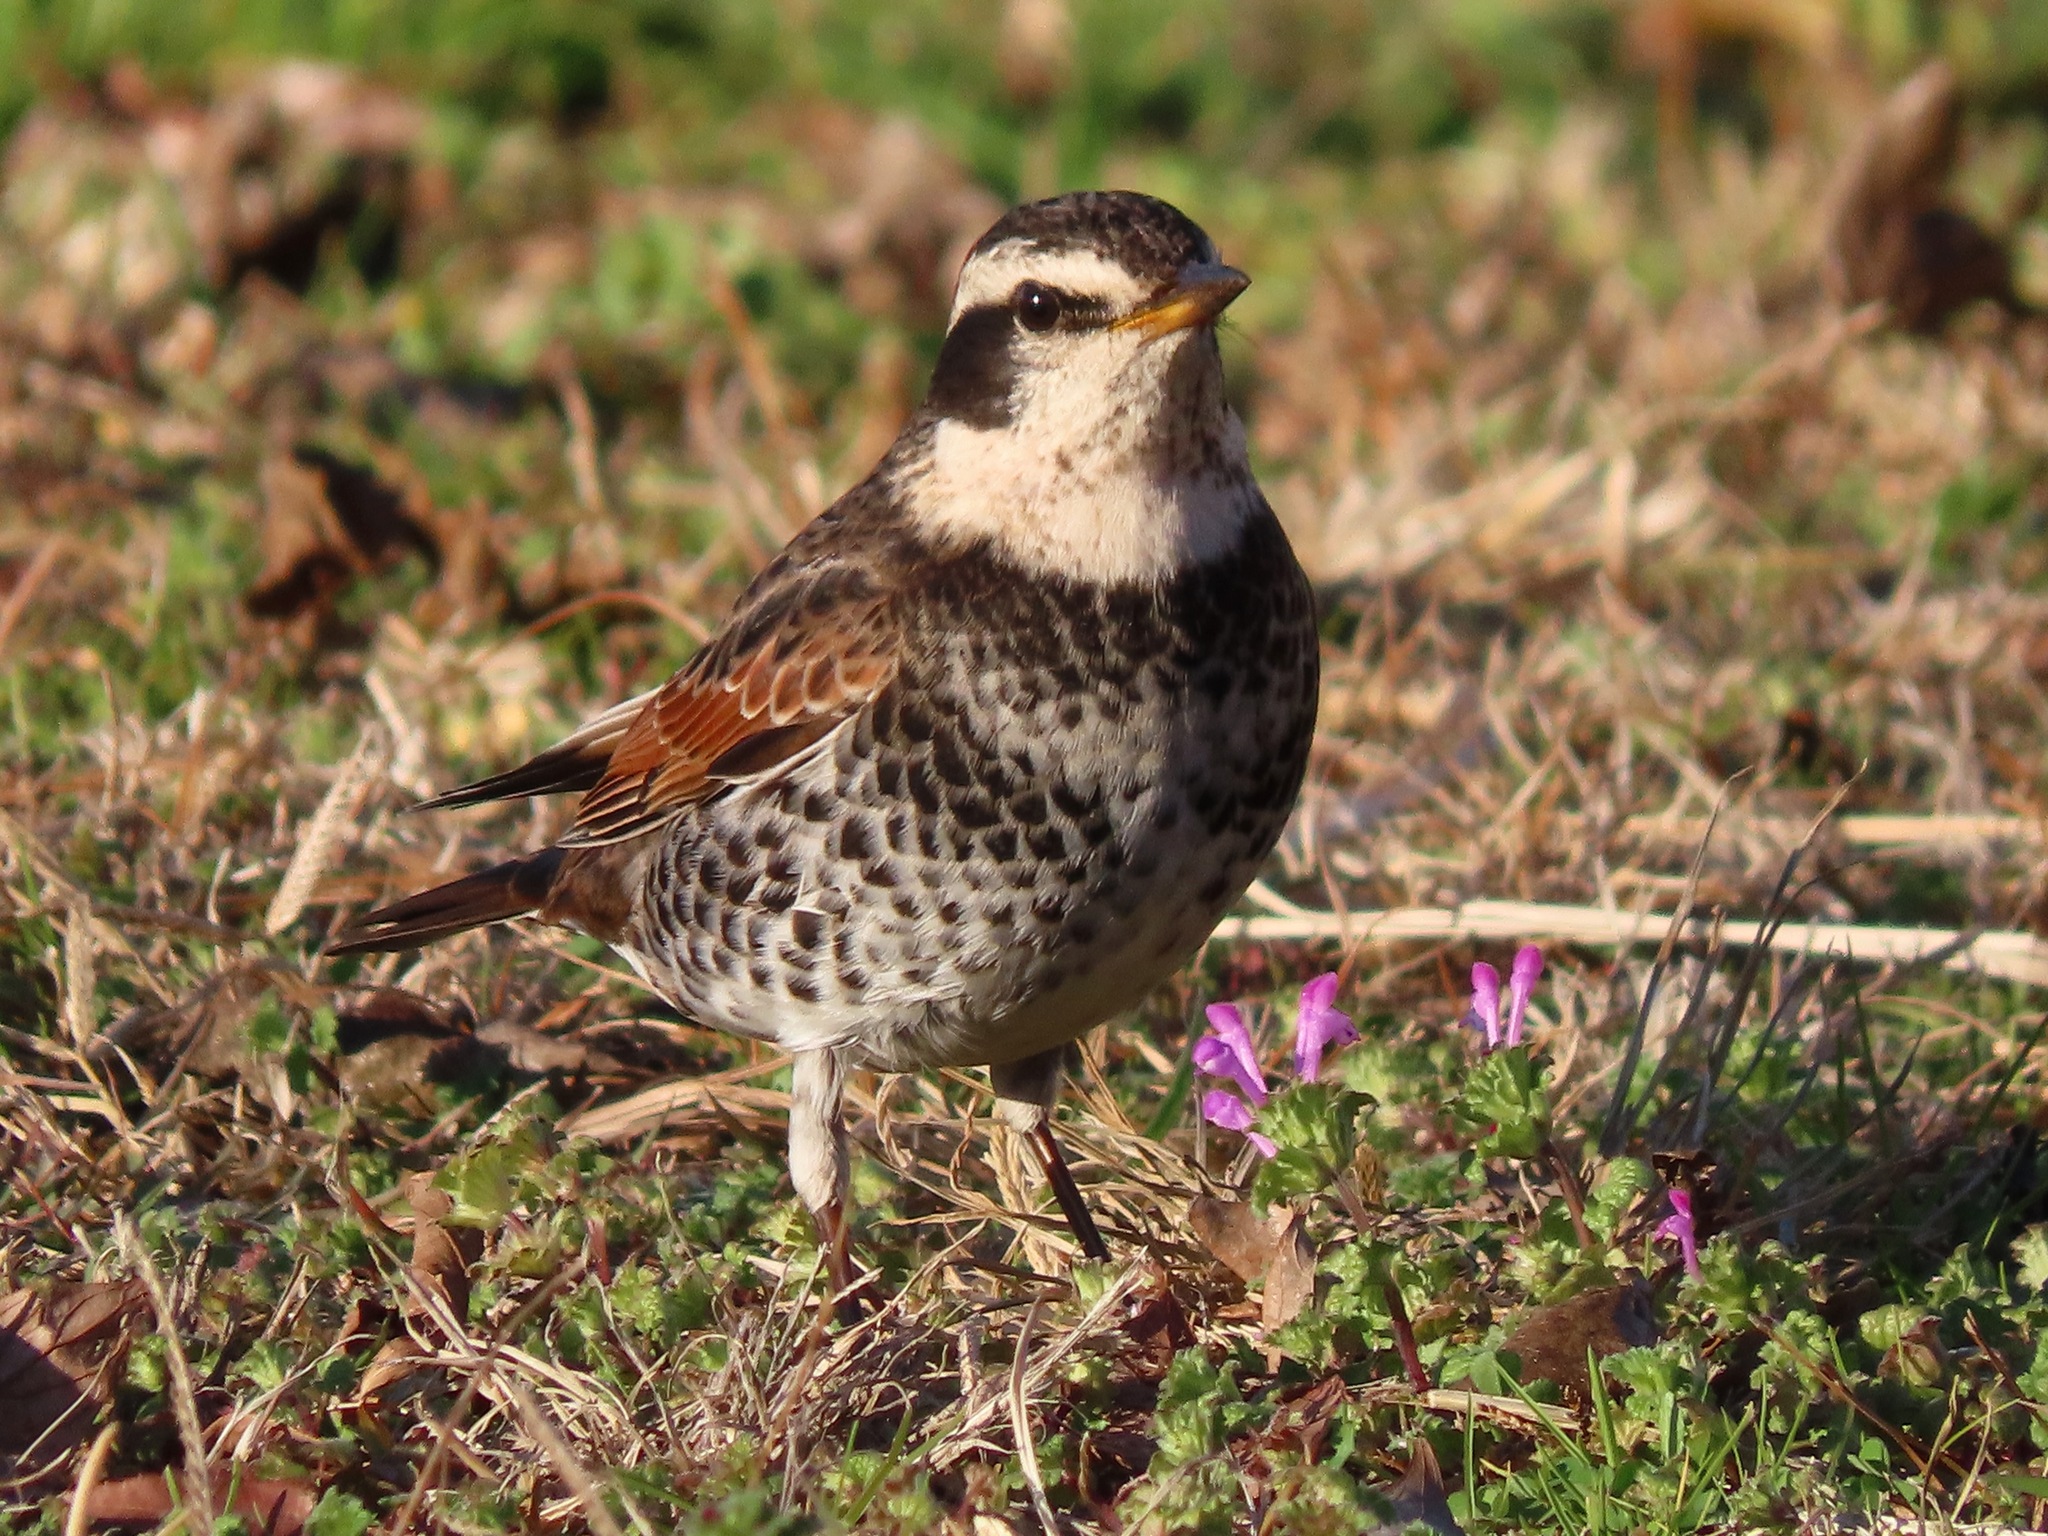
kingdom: Animalia
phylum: Chordata
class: Aves
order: Passeriformes
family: Turdidae
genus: Turdus
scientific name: Turdus eunomus
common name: Dusky thrush
